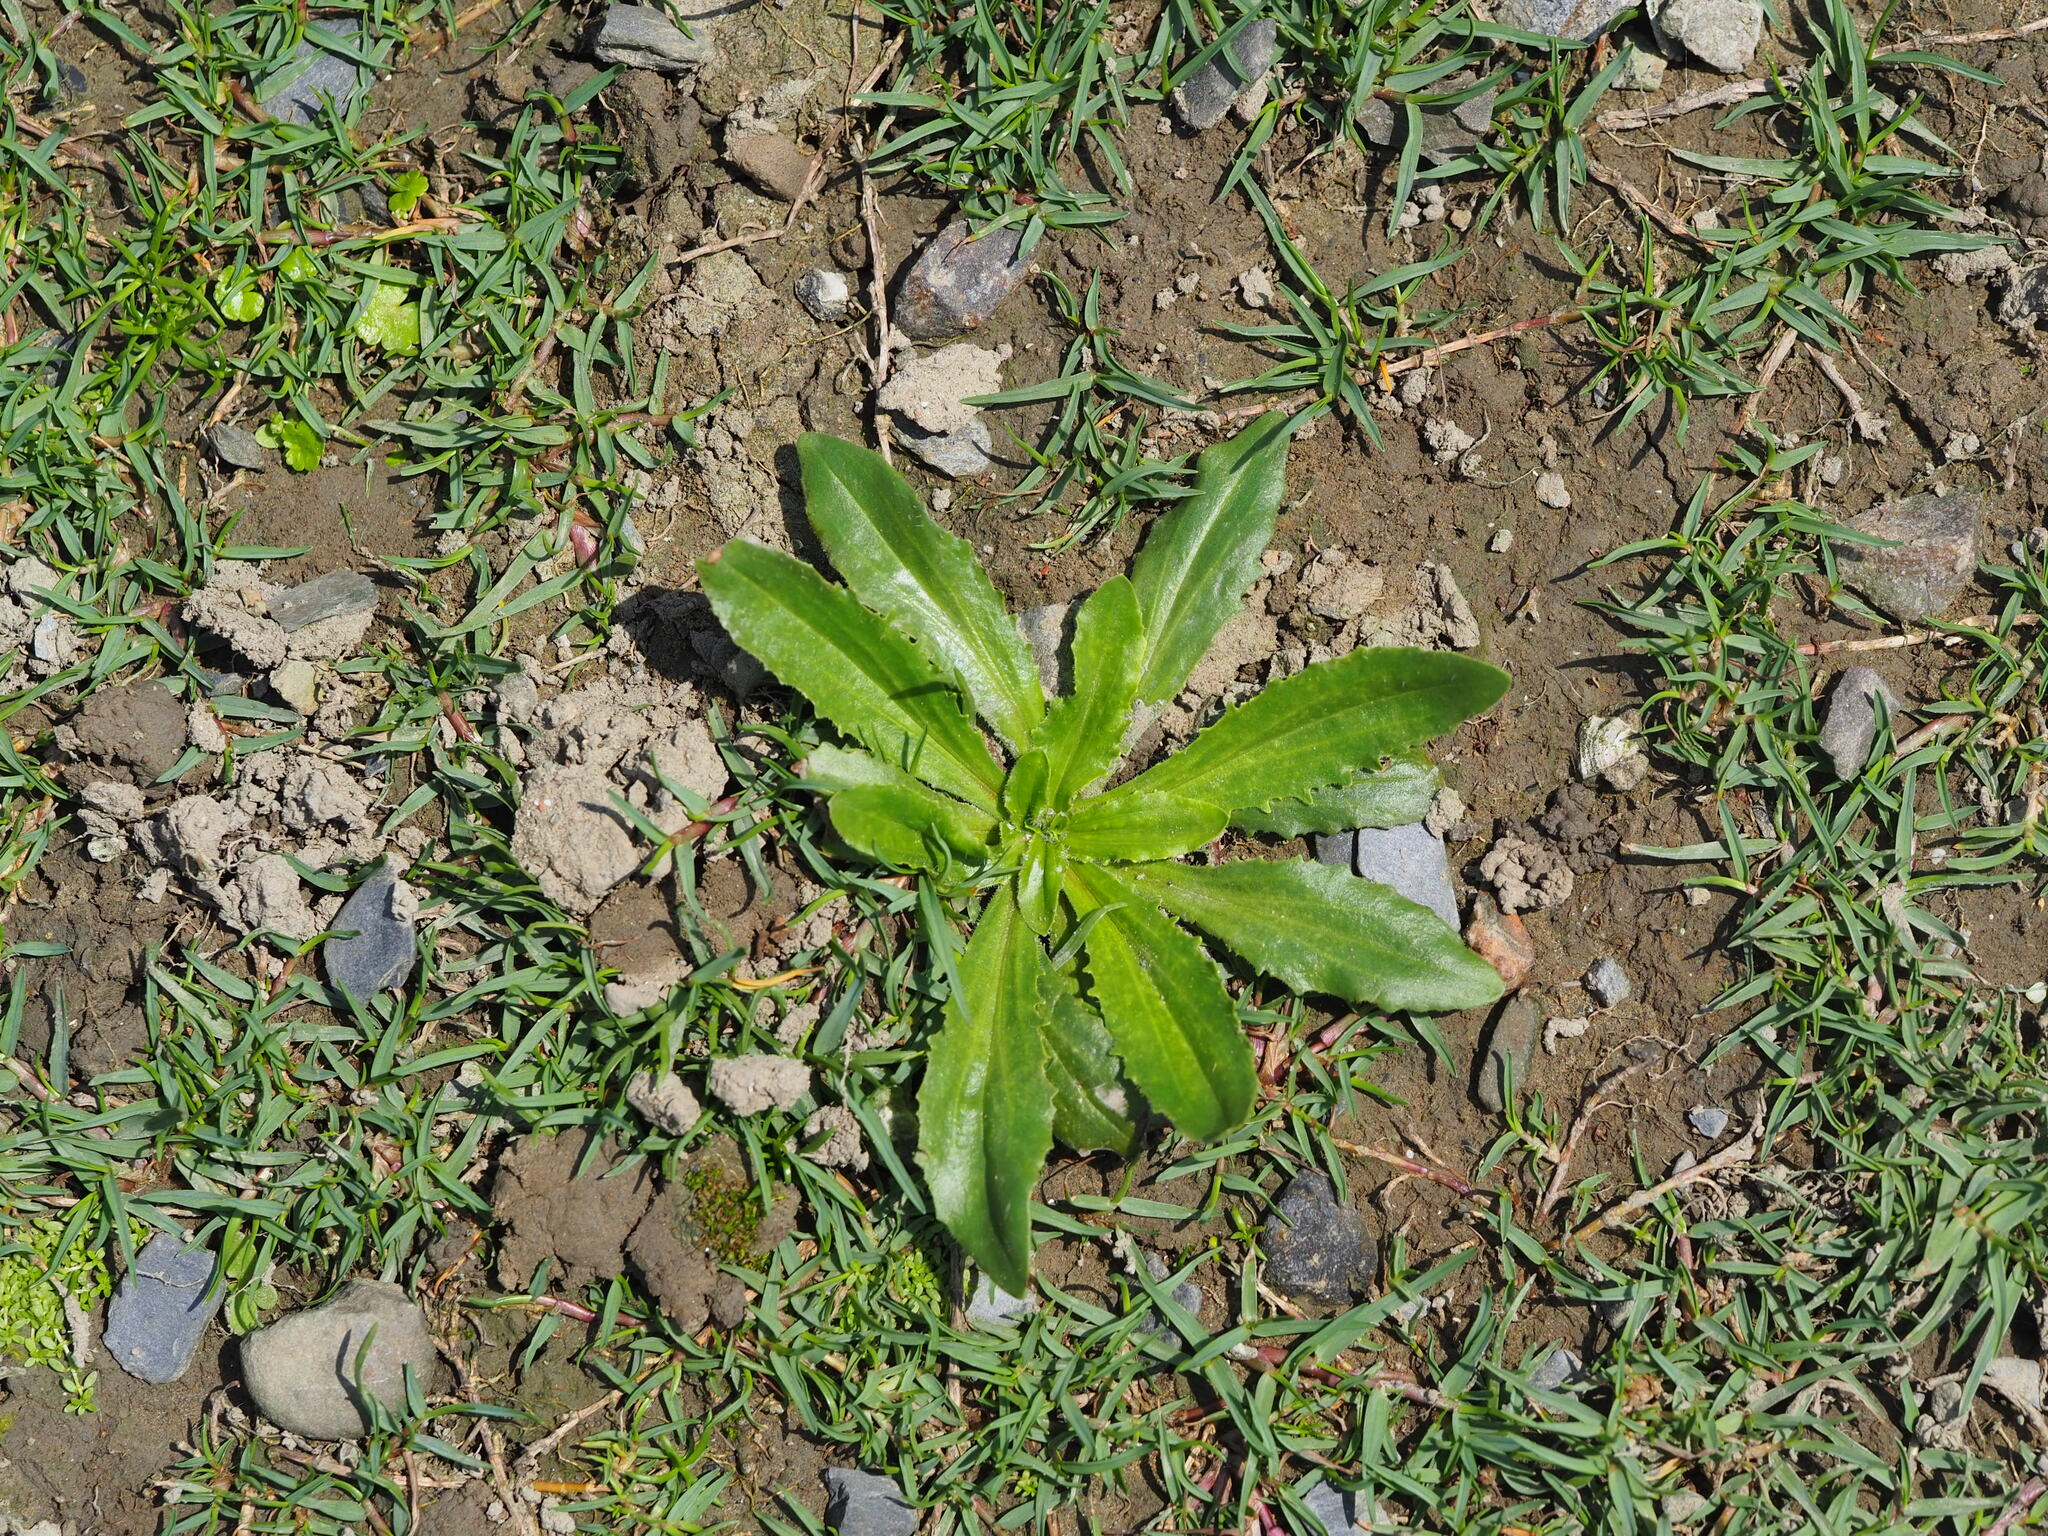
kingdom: Plantae
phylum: Tracheophyta
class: Magnoliopsida
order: Lamiales
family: Plantaginaceae
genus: Plantago
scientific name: Plantago virginica
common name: Hoary plantain
